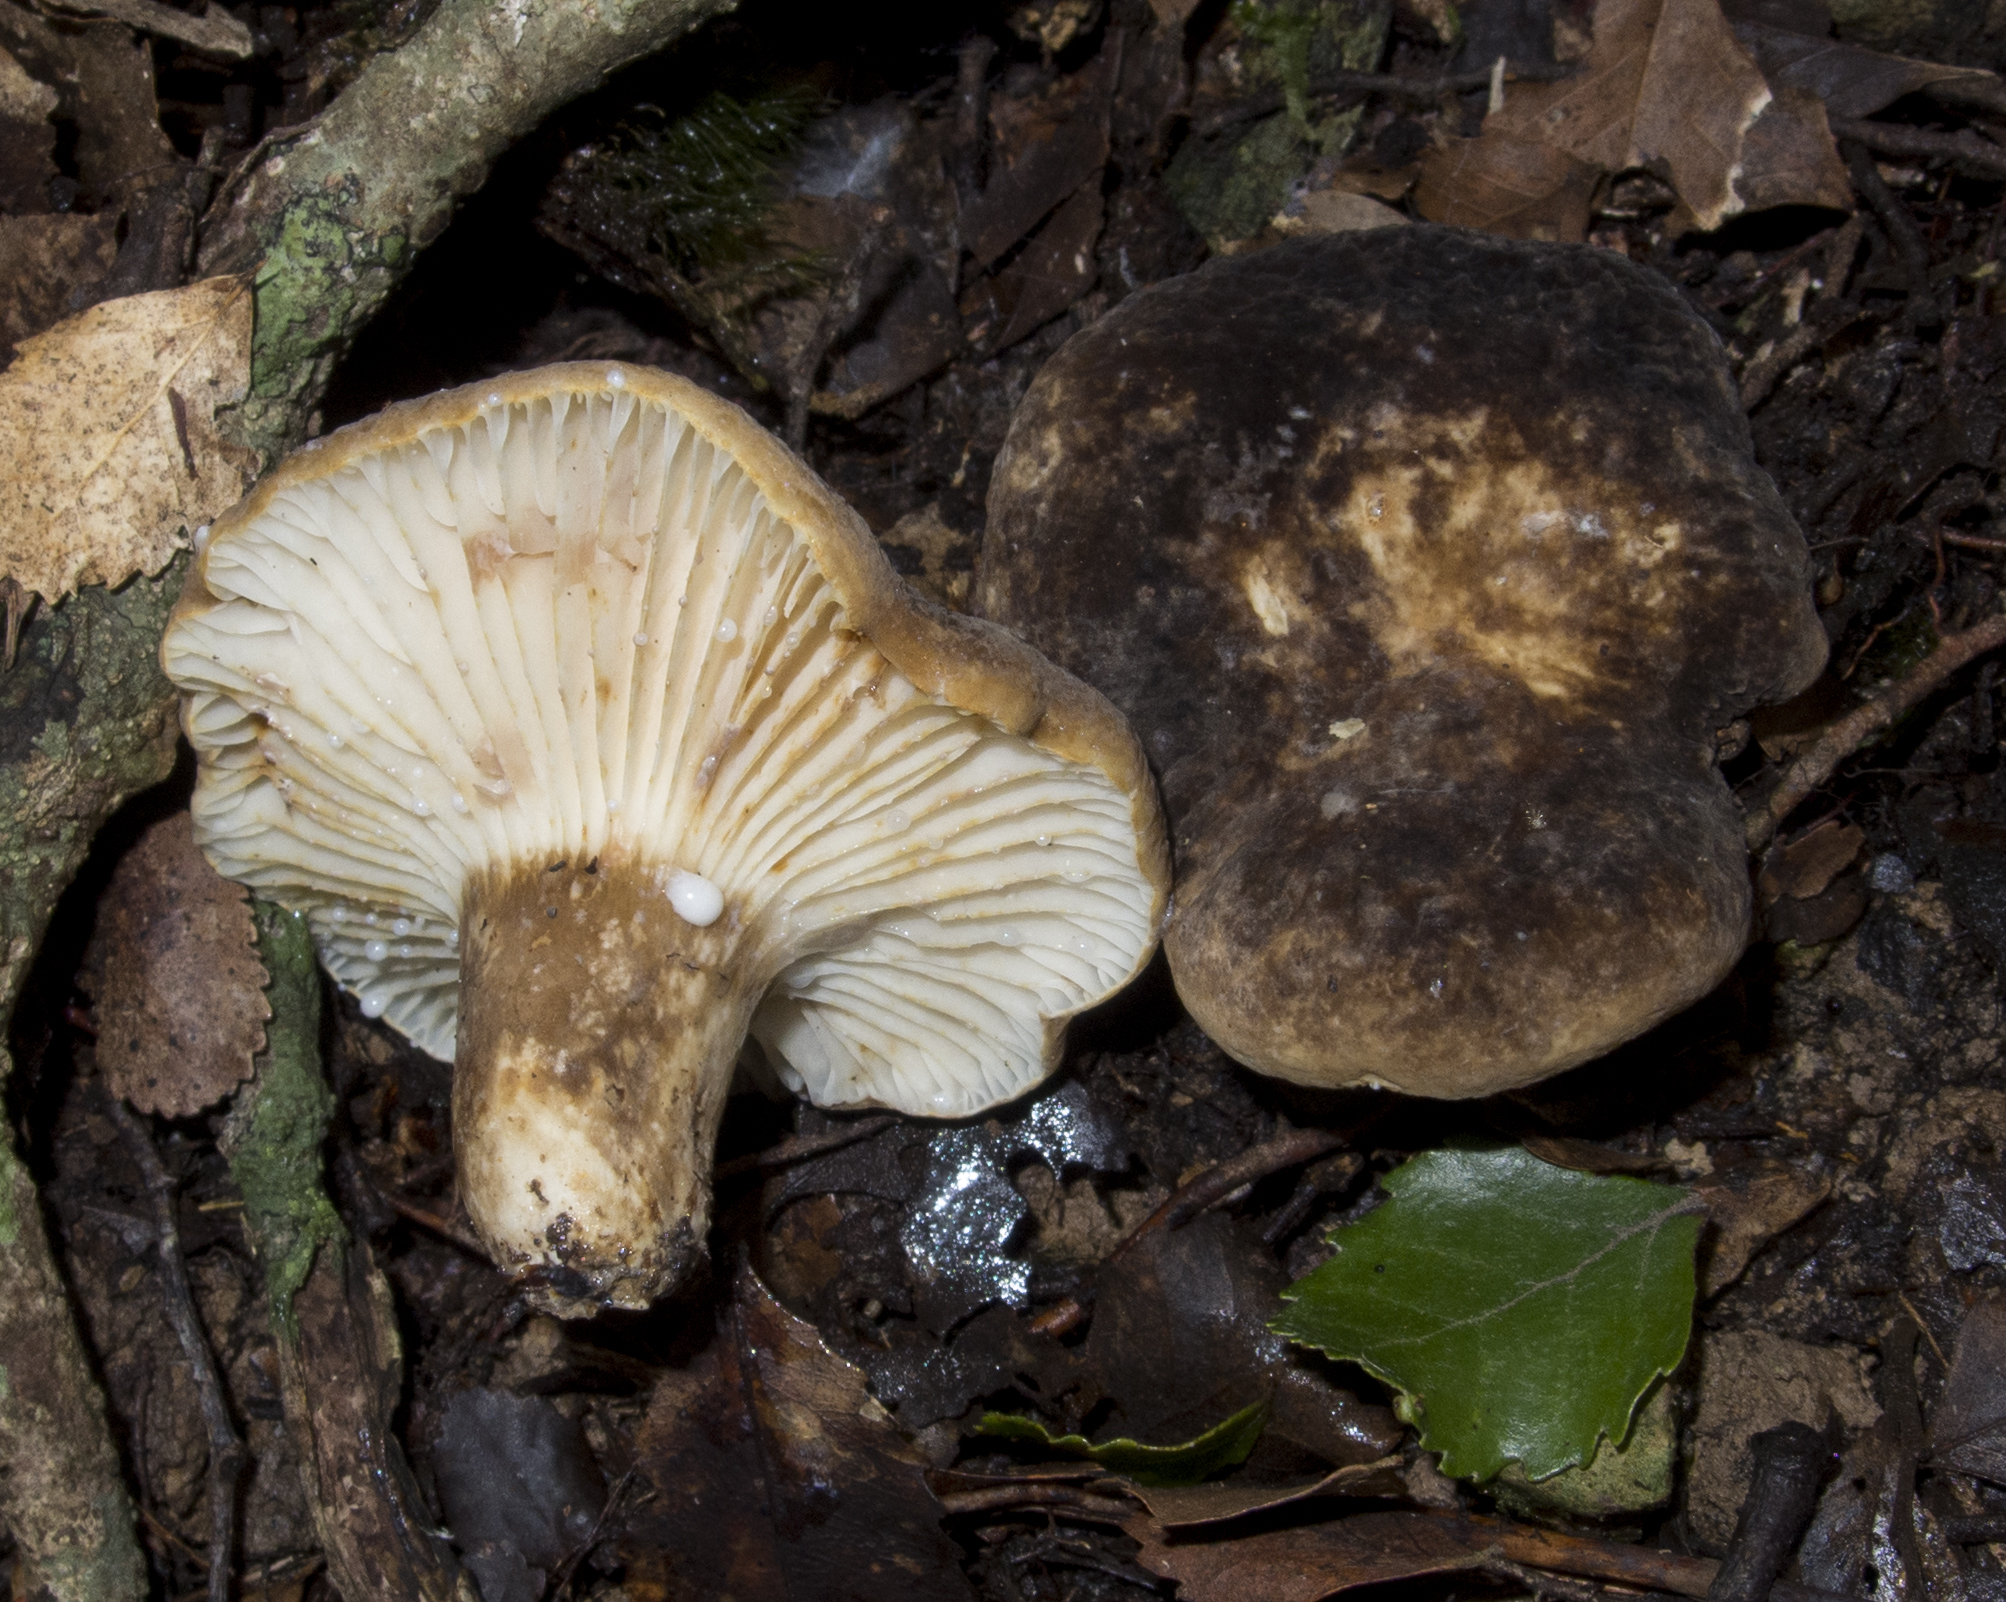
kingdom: Fungi
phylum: Basidiomycota
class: Agaricomycetes
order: Russulales
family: Russulaceae
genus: Lactifluus
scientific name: Lactifluus sepiaceus
